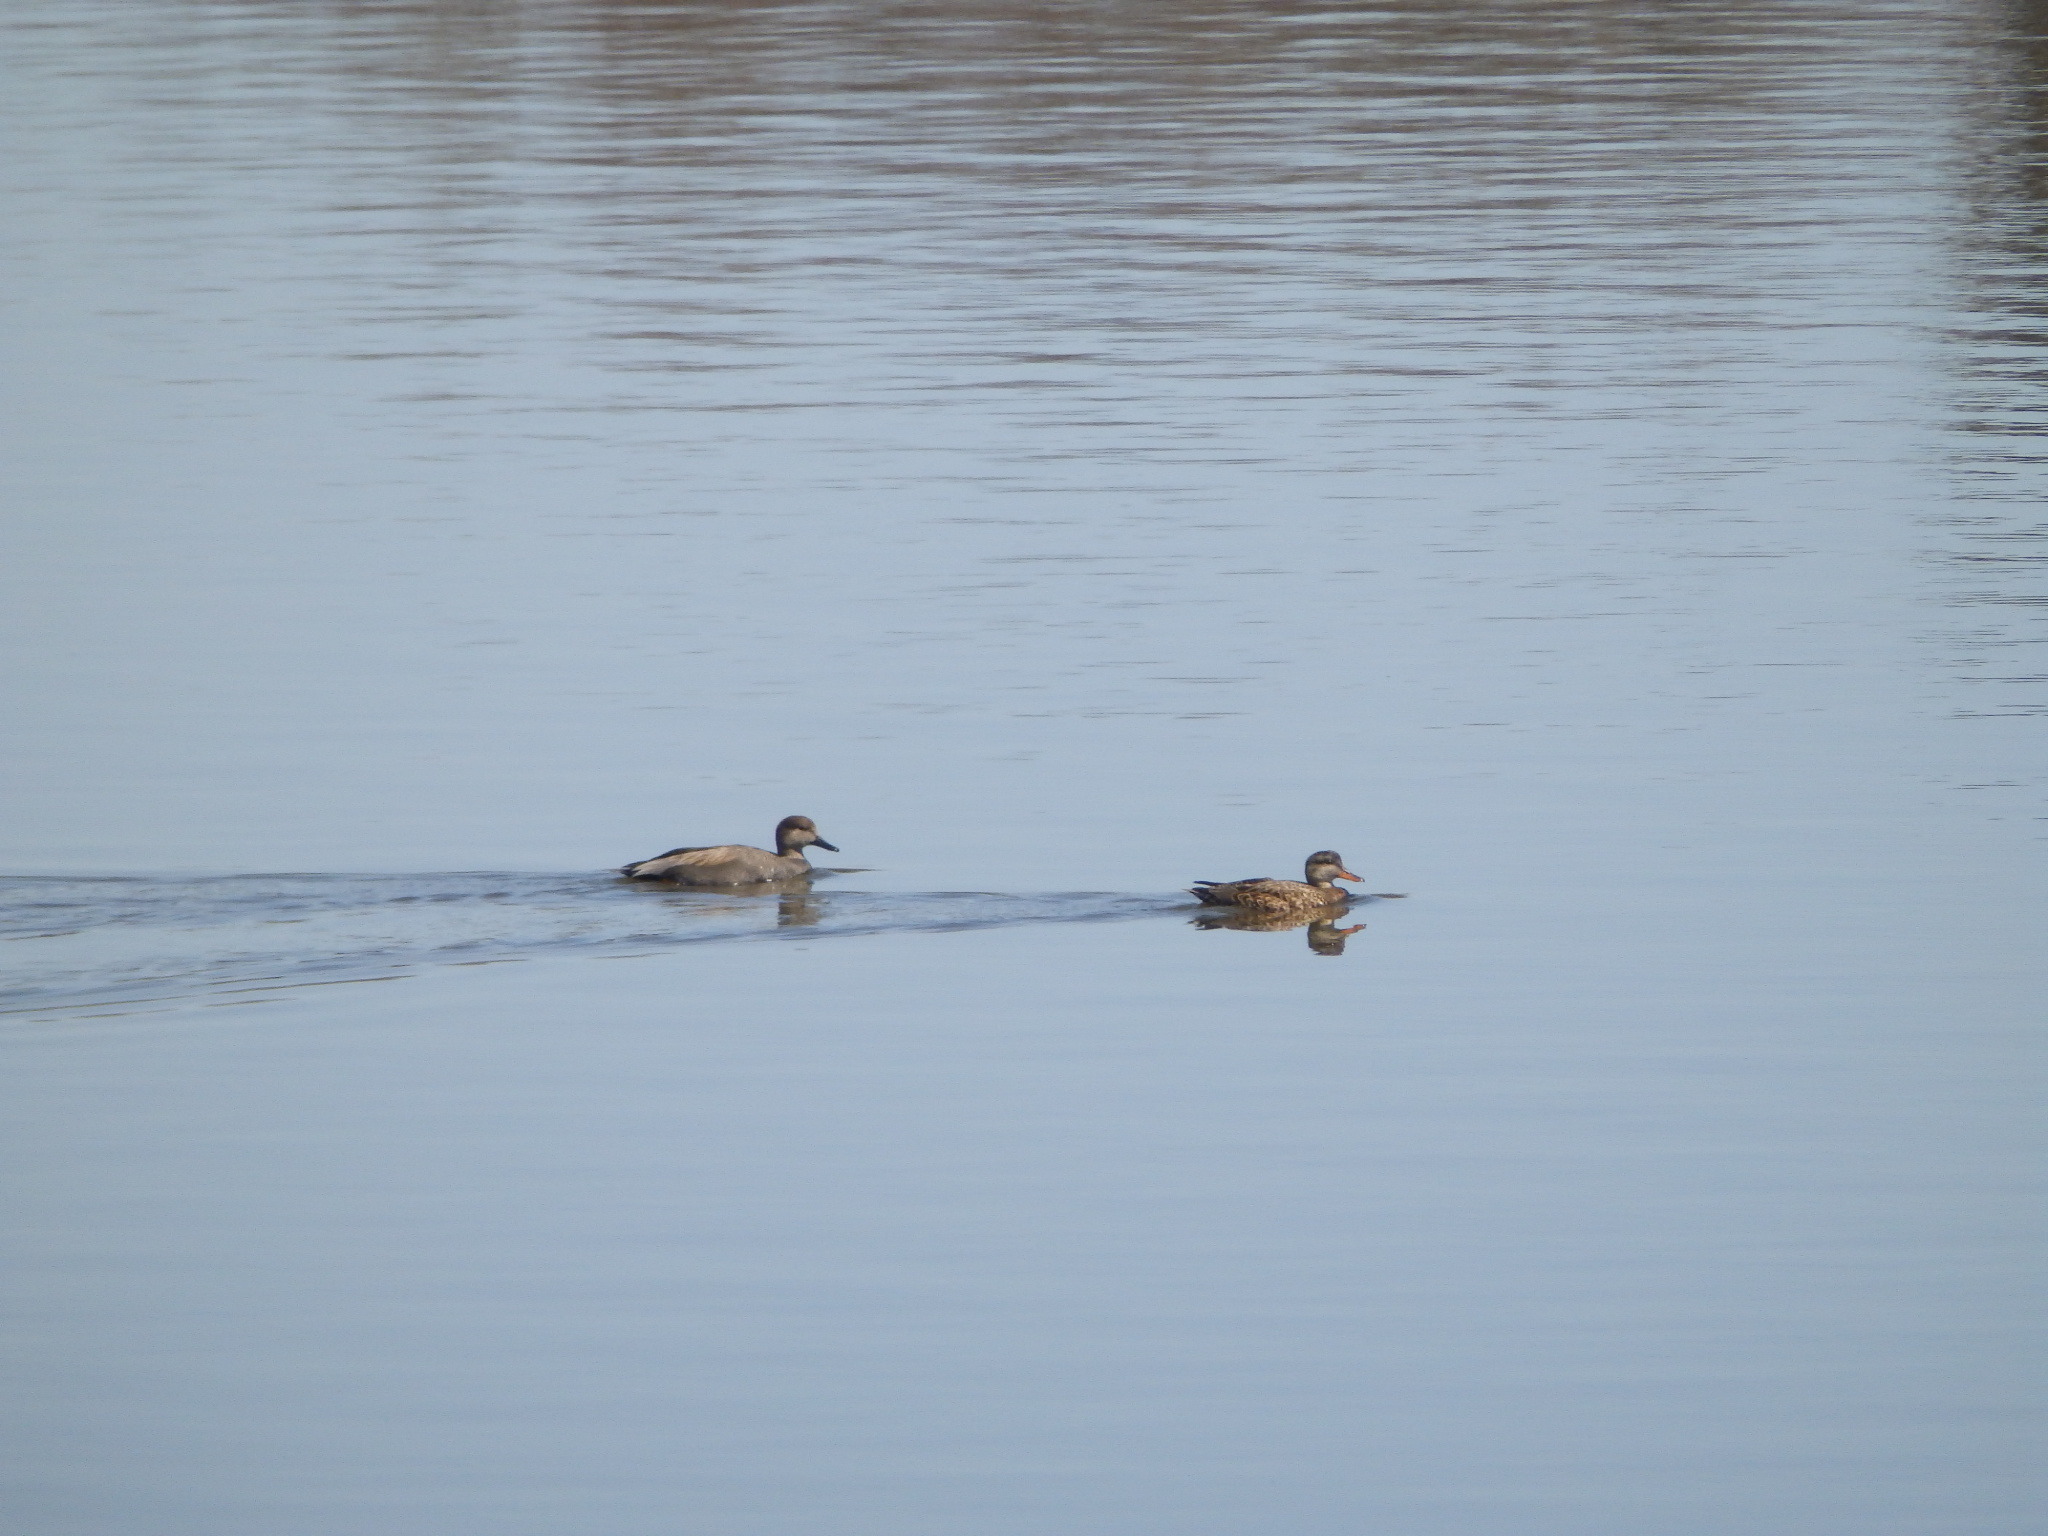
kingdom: Animalia
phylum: Chordata
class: Aves
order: Anseriformes
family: Anatidae
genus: Mareca
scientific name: Mareca strepera
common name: Gadwall
